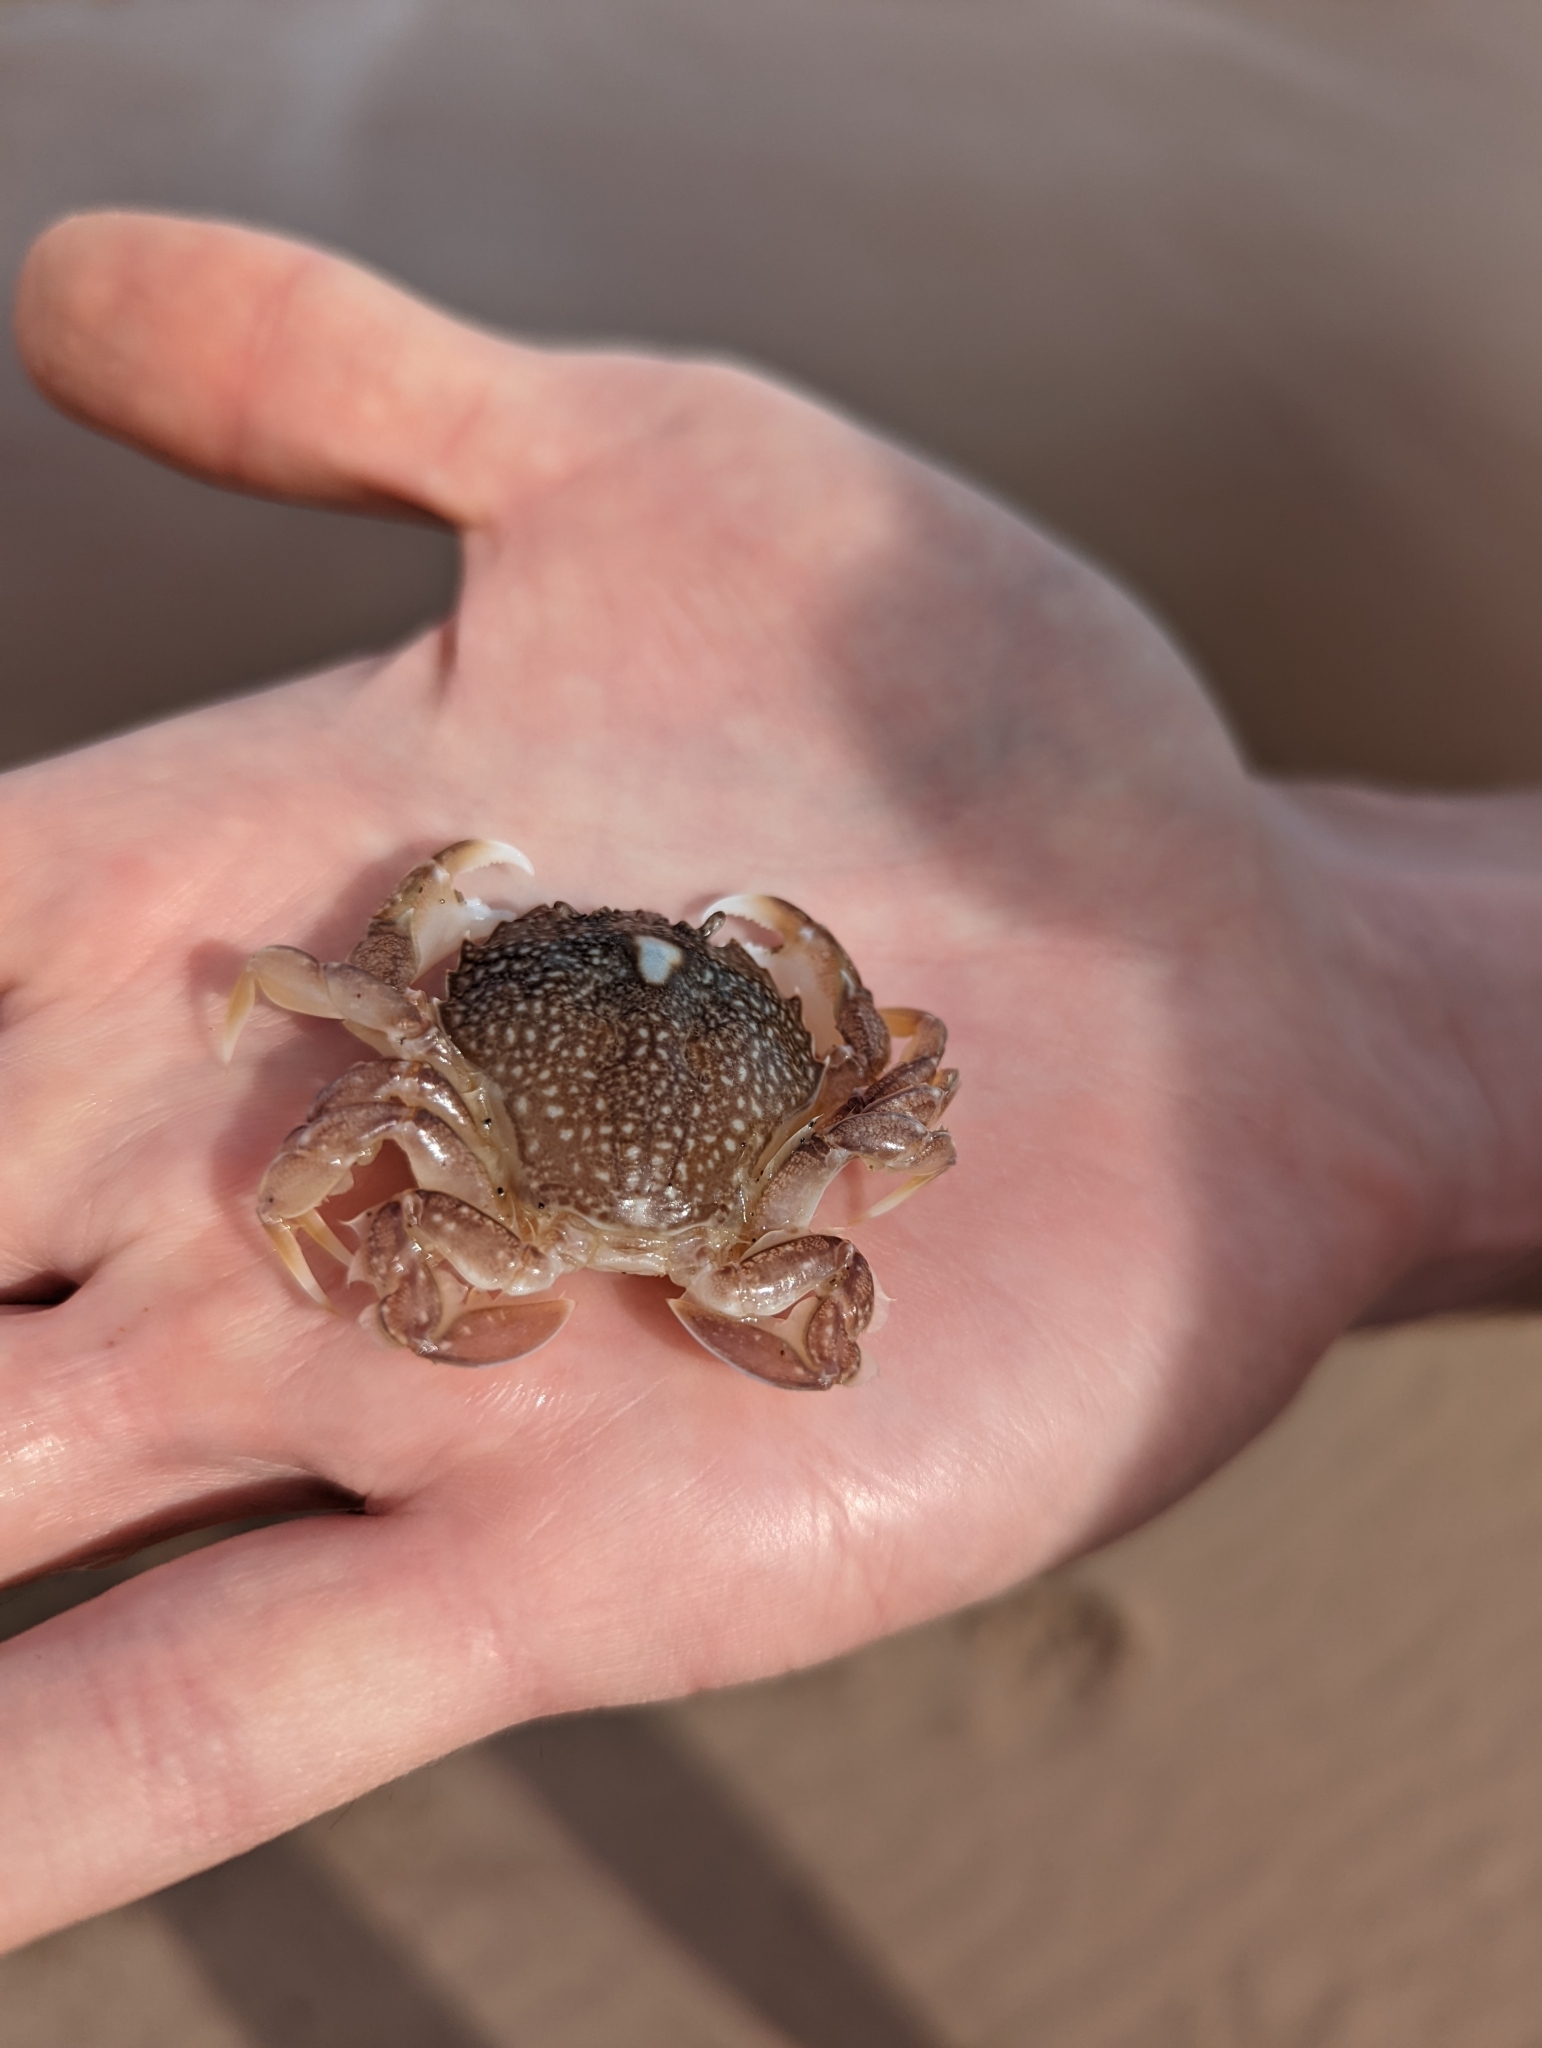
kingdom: Animalia
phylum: Arthropoda
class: Malacostraca
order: Decapoda
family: Carcinidae
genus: Portumnus
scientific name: Portumnus latipes
